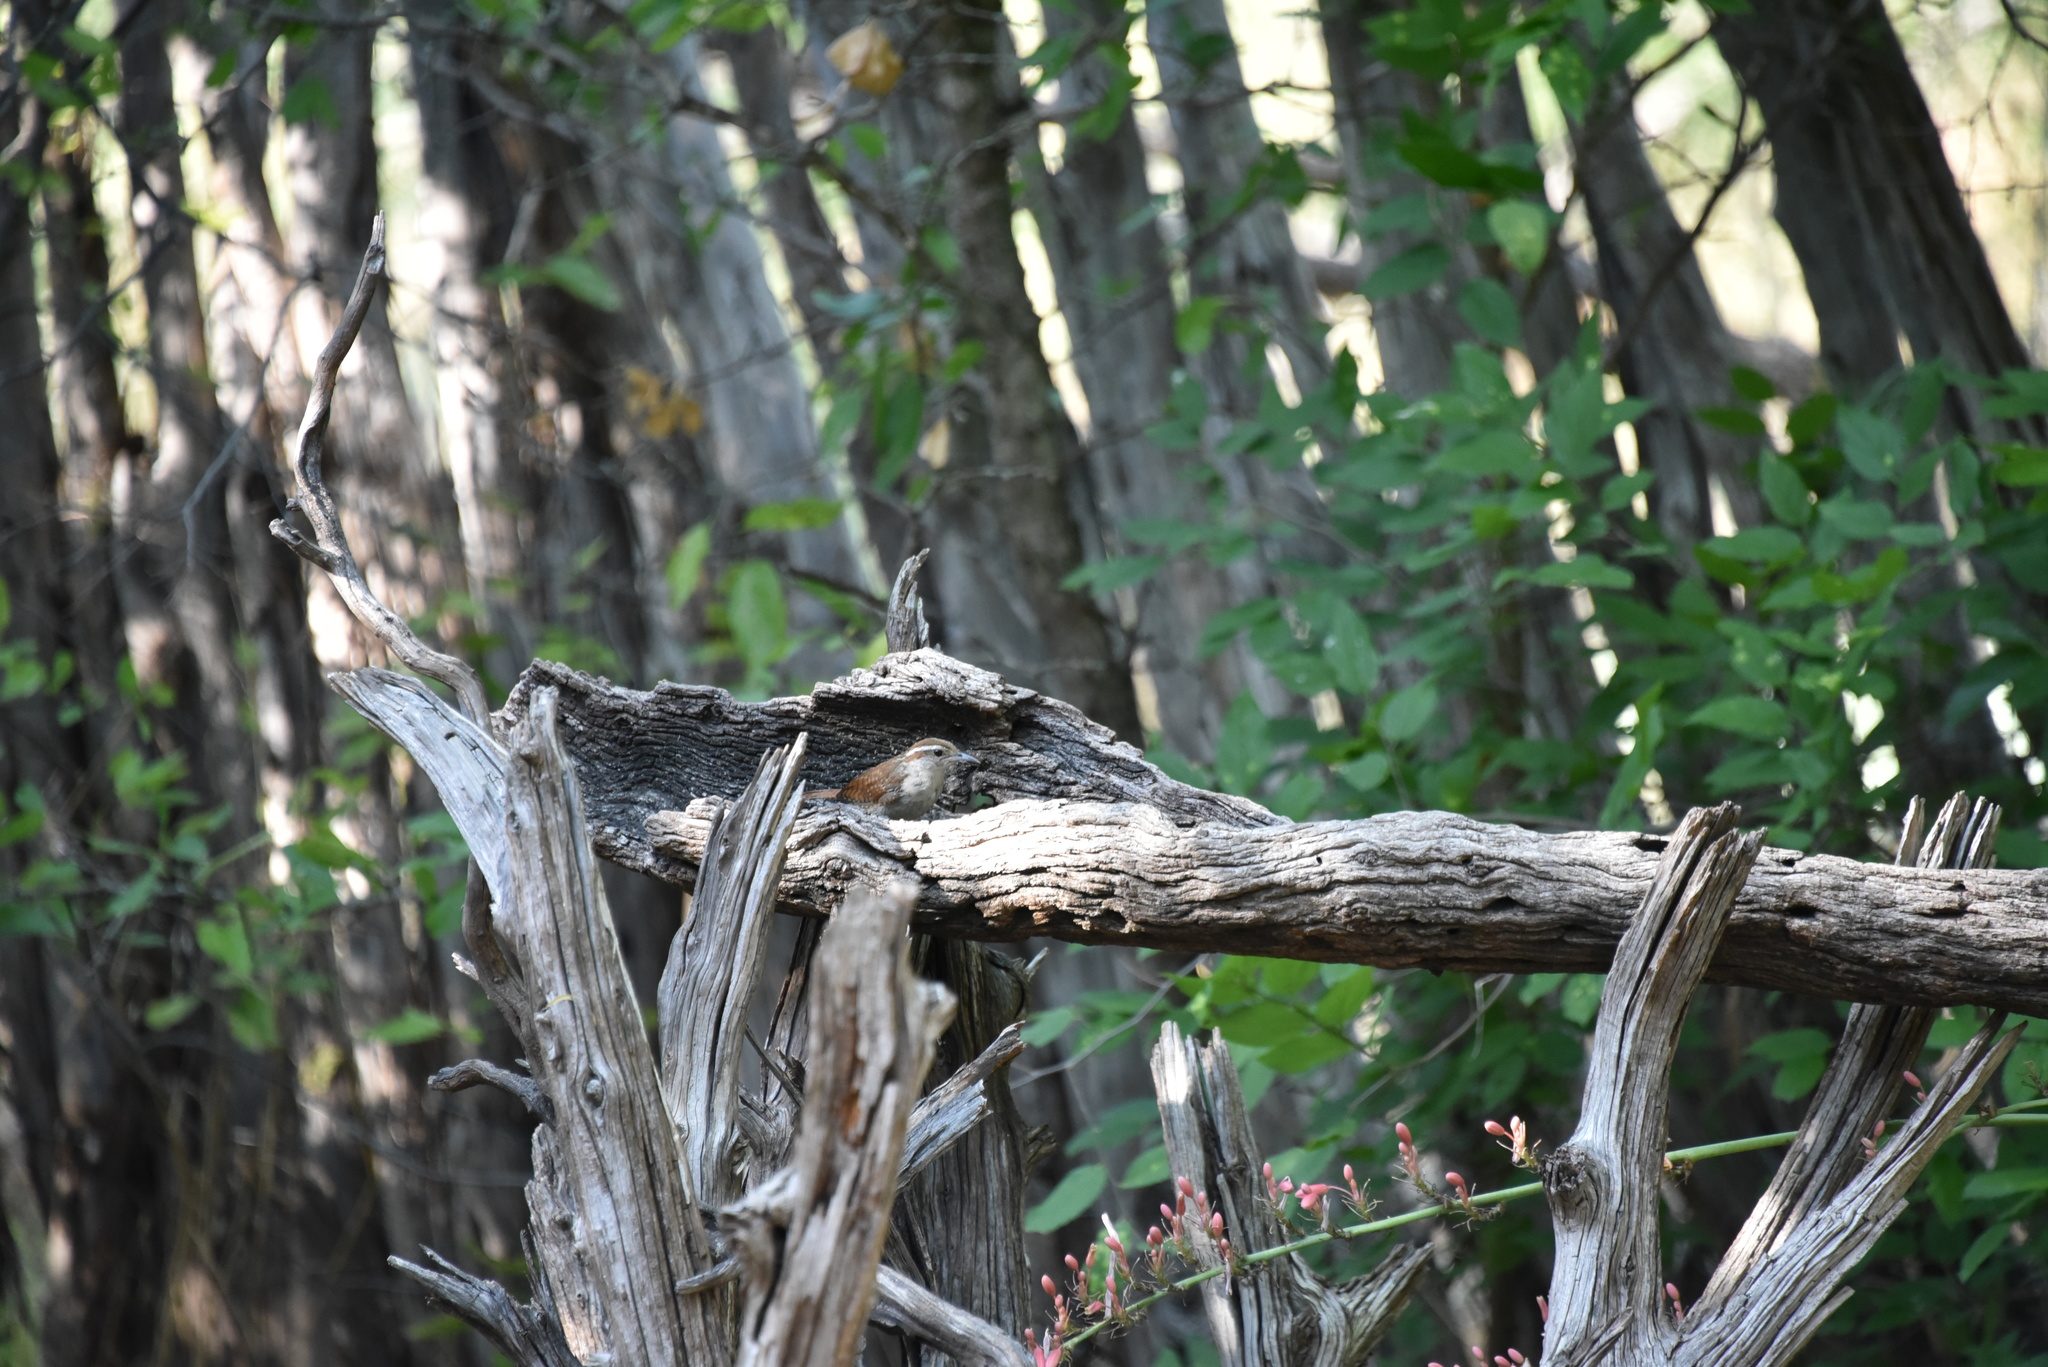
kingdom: Animalia
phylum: Chordata
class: Aves
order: Passeriformes
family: Troglodytidae
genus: Thryothorus
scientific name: Thryothorus ludovicianus
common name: Carolina wren
